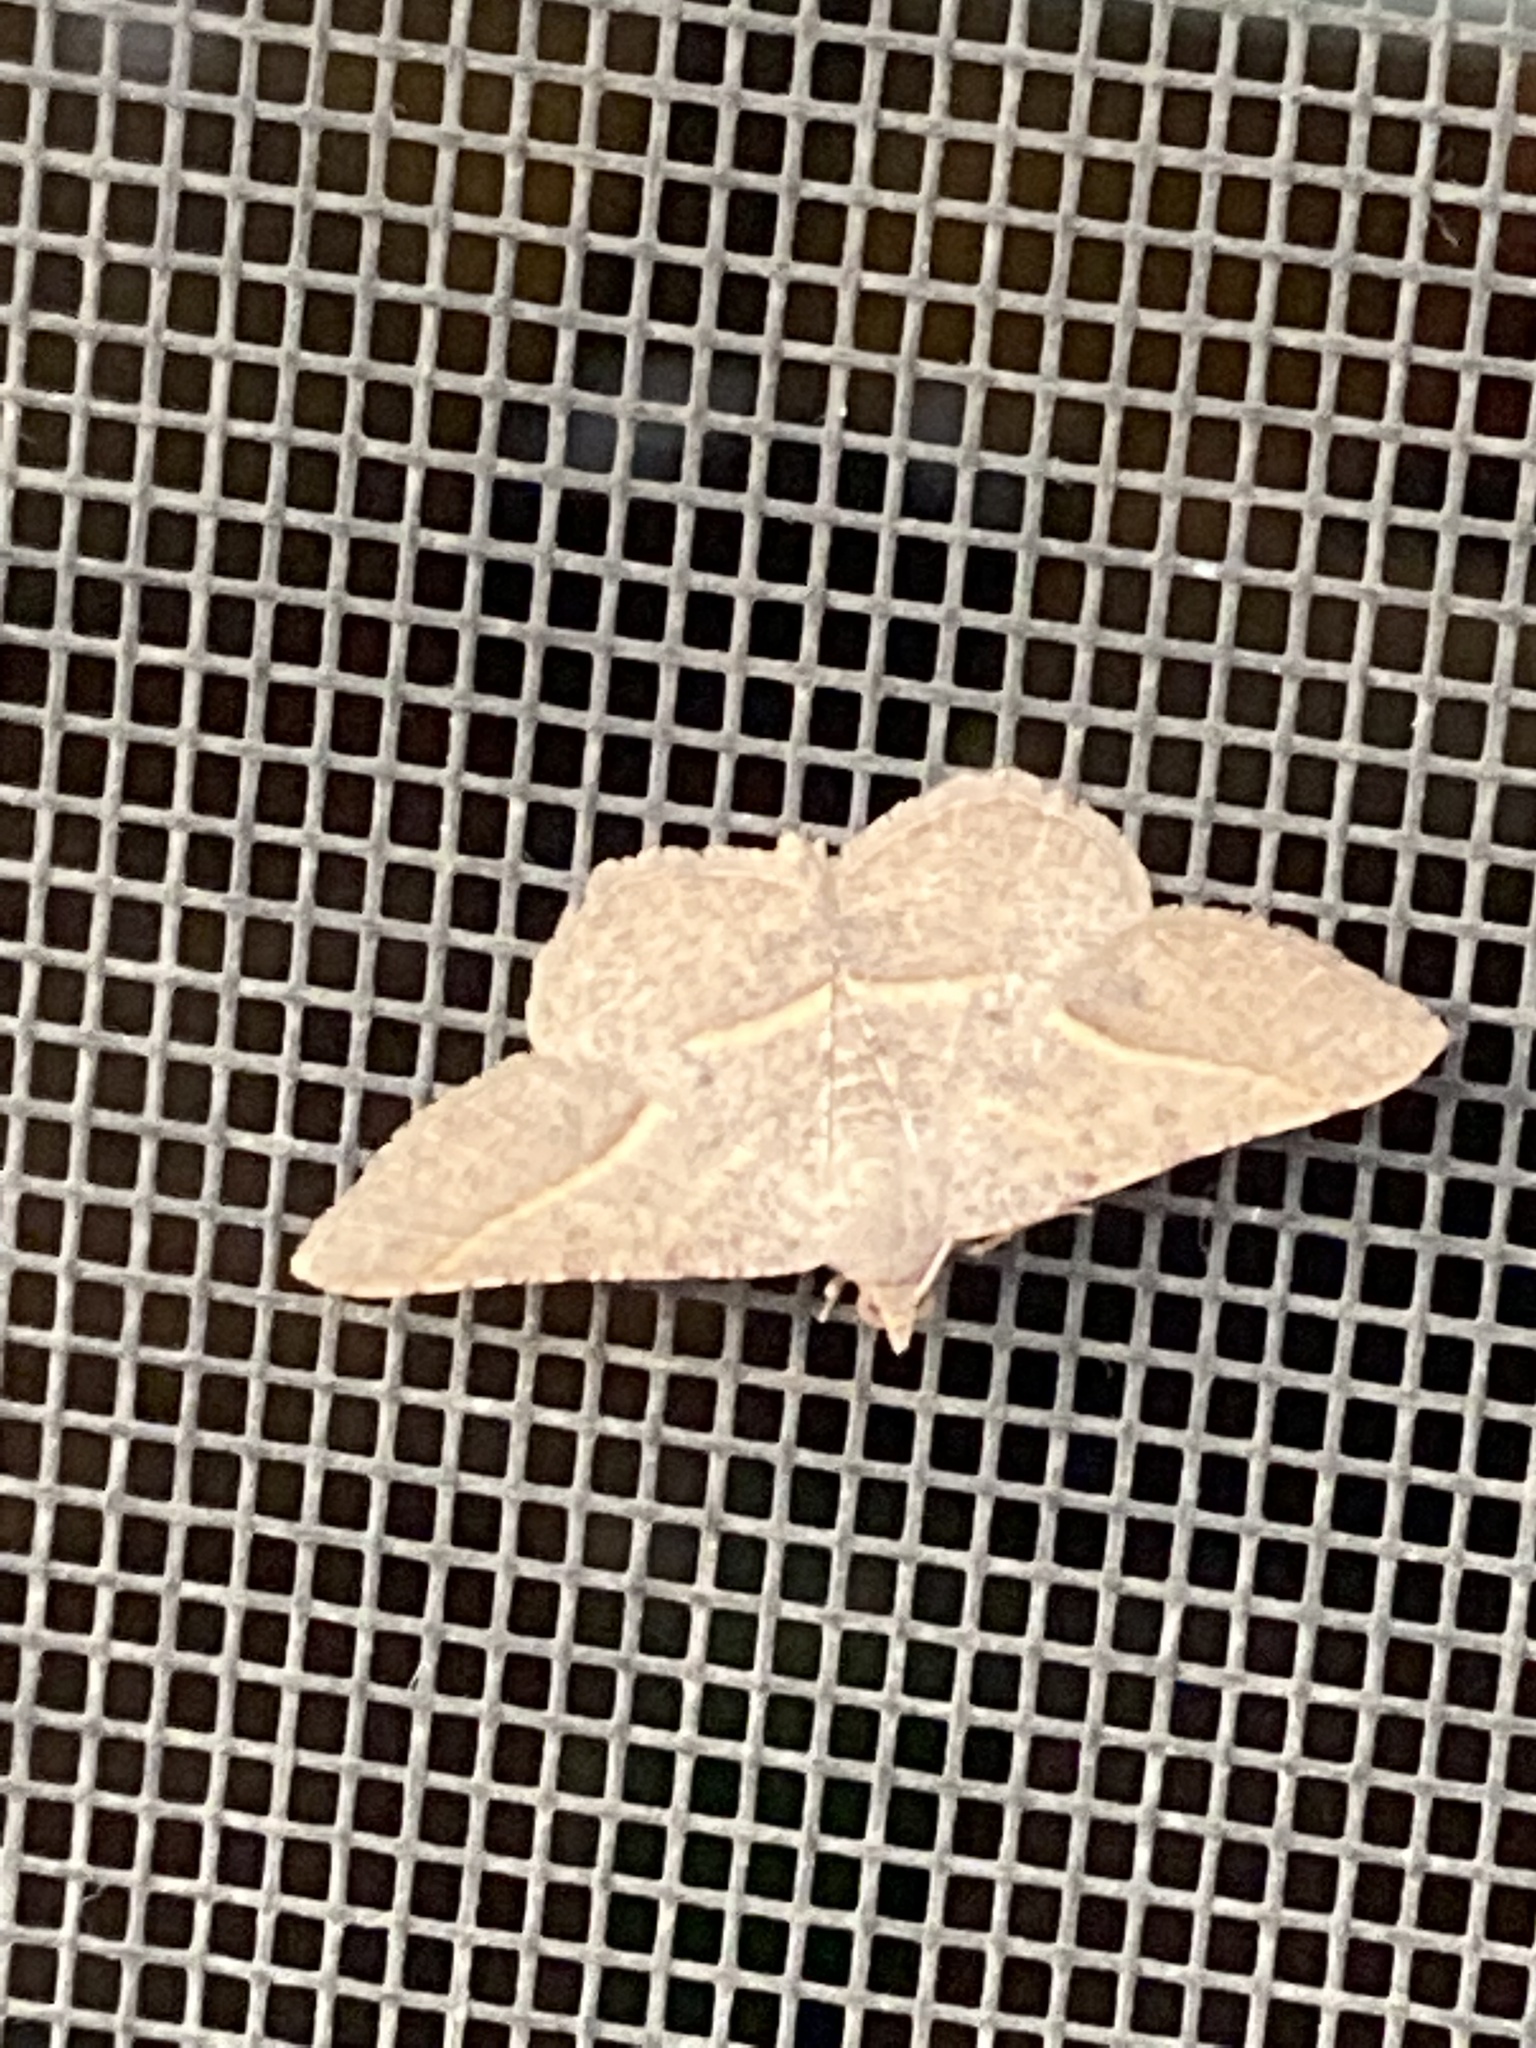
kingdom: Animalia
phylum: Arthropoda
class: Insecta
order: Lepidoptera
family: Geometridae
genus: Digrammia
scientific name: Digrammia irrorata
